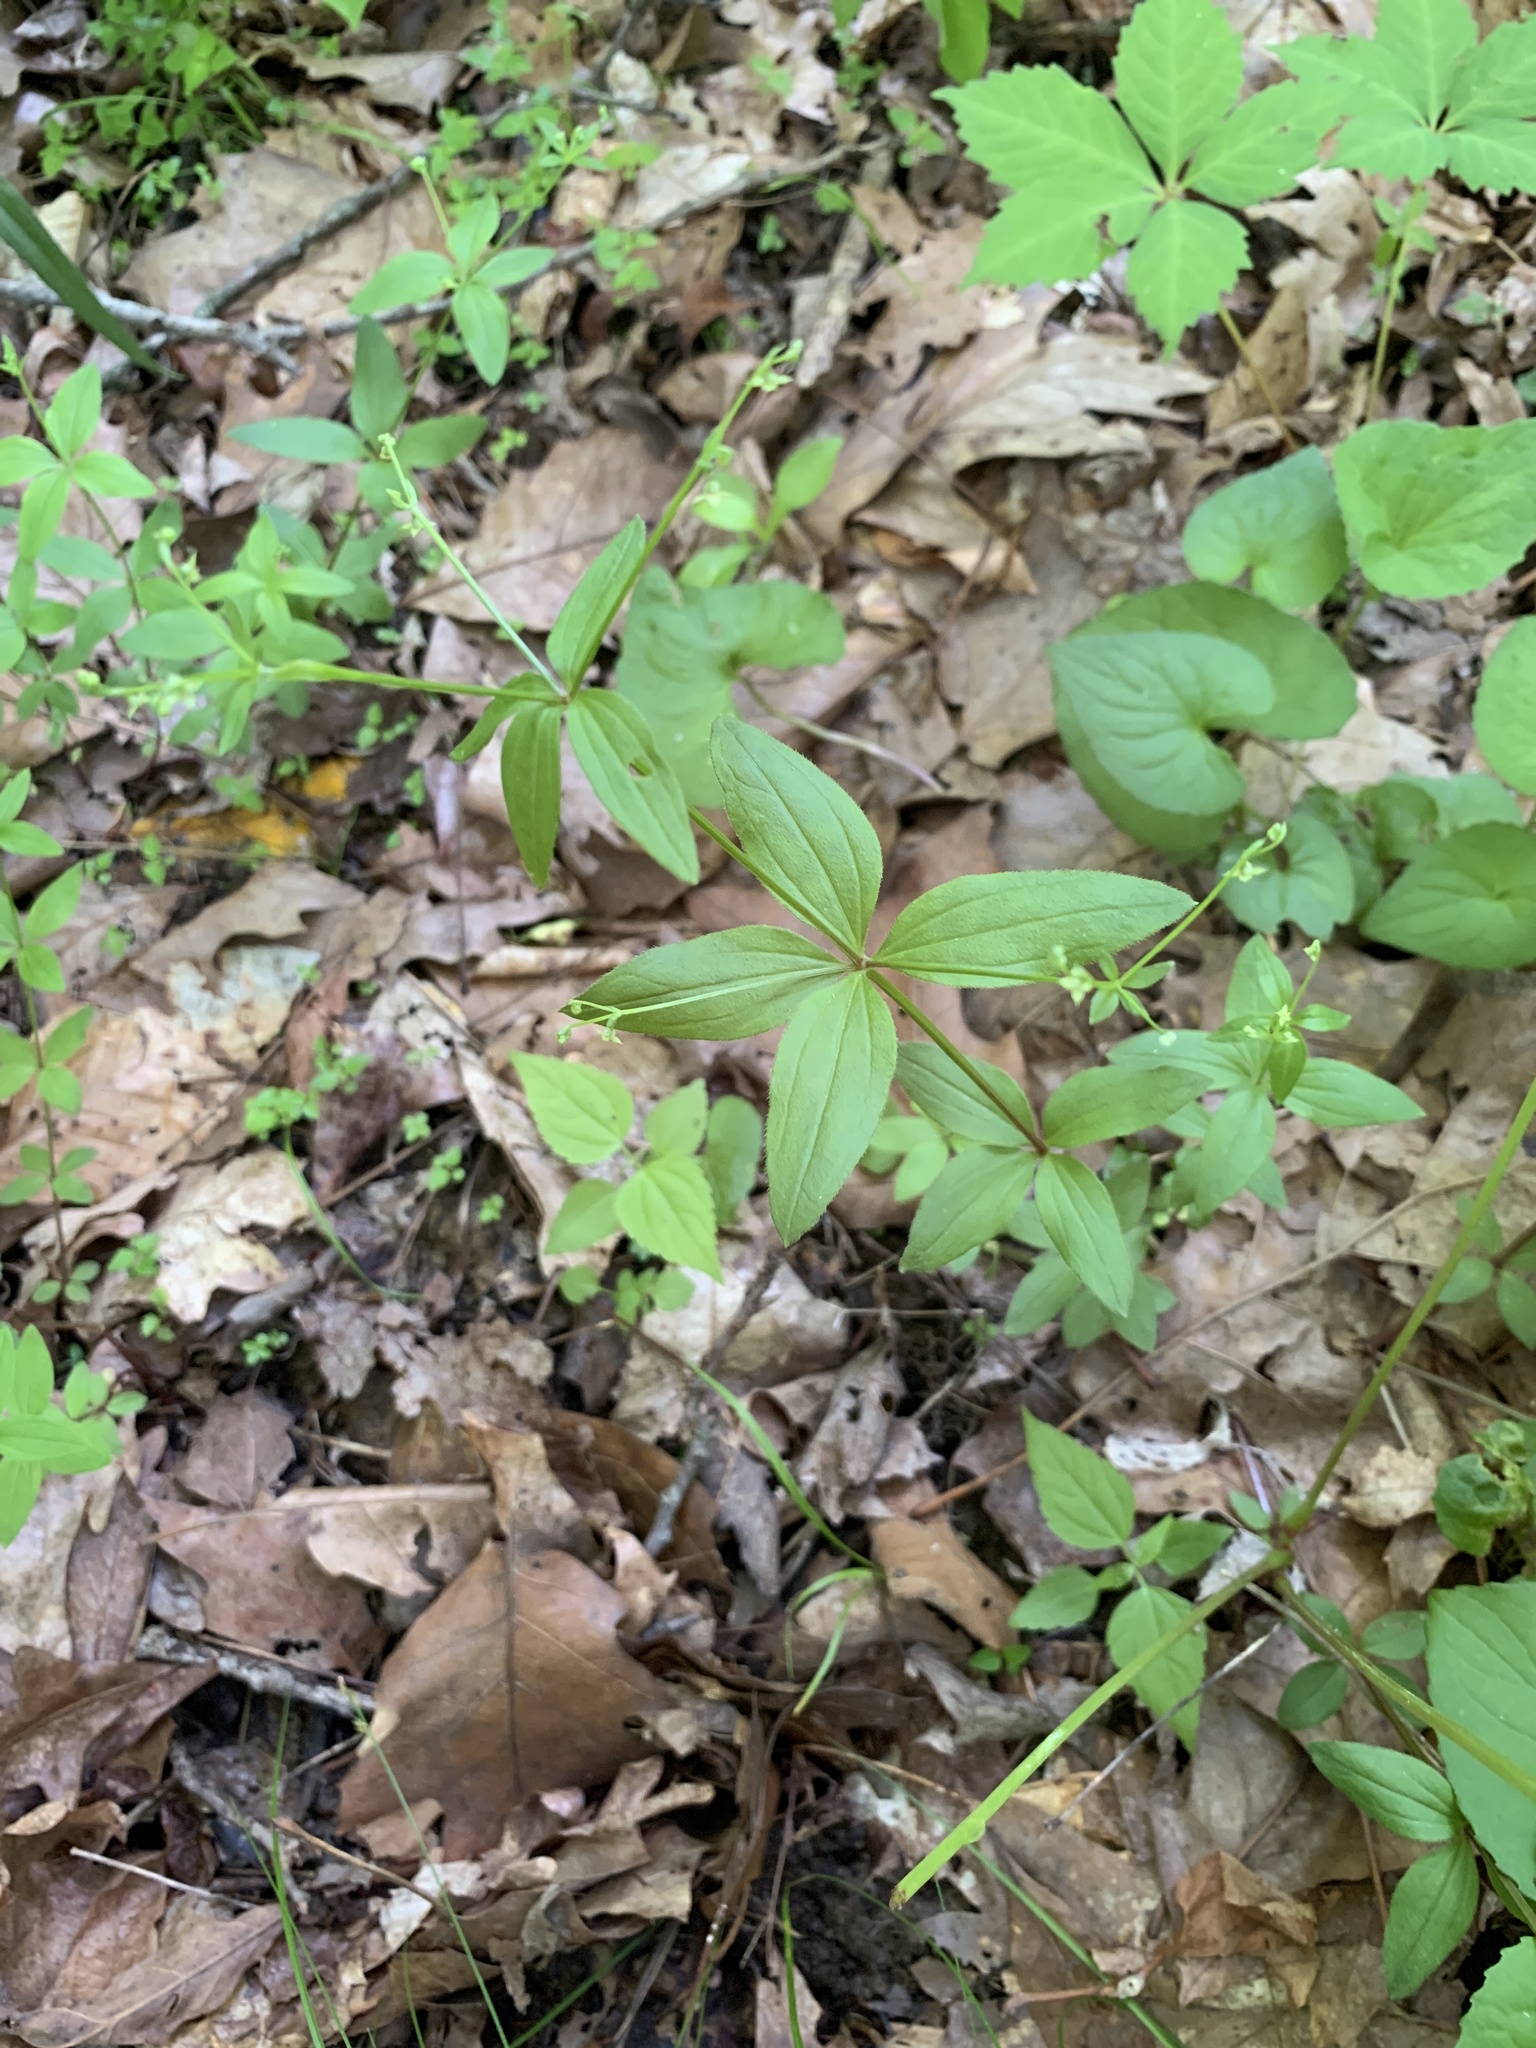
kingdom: Plantae
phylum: Tracheophyta
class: Magnoliopsida
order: Gentianales
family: Rubiaceae
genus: Galium
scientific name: Galium circaezans
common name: Forest bedstraw
